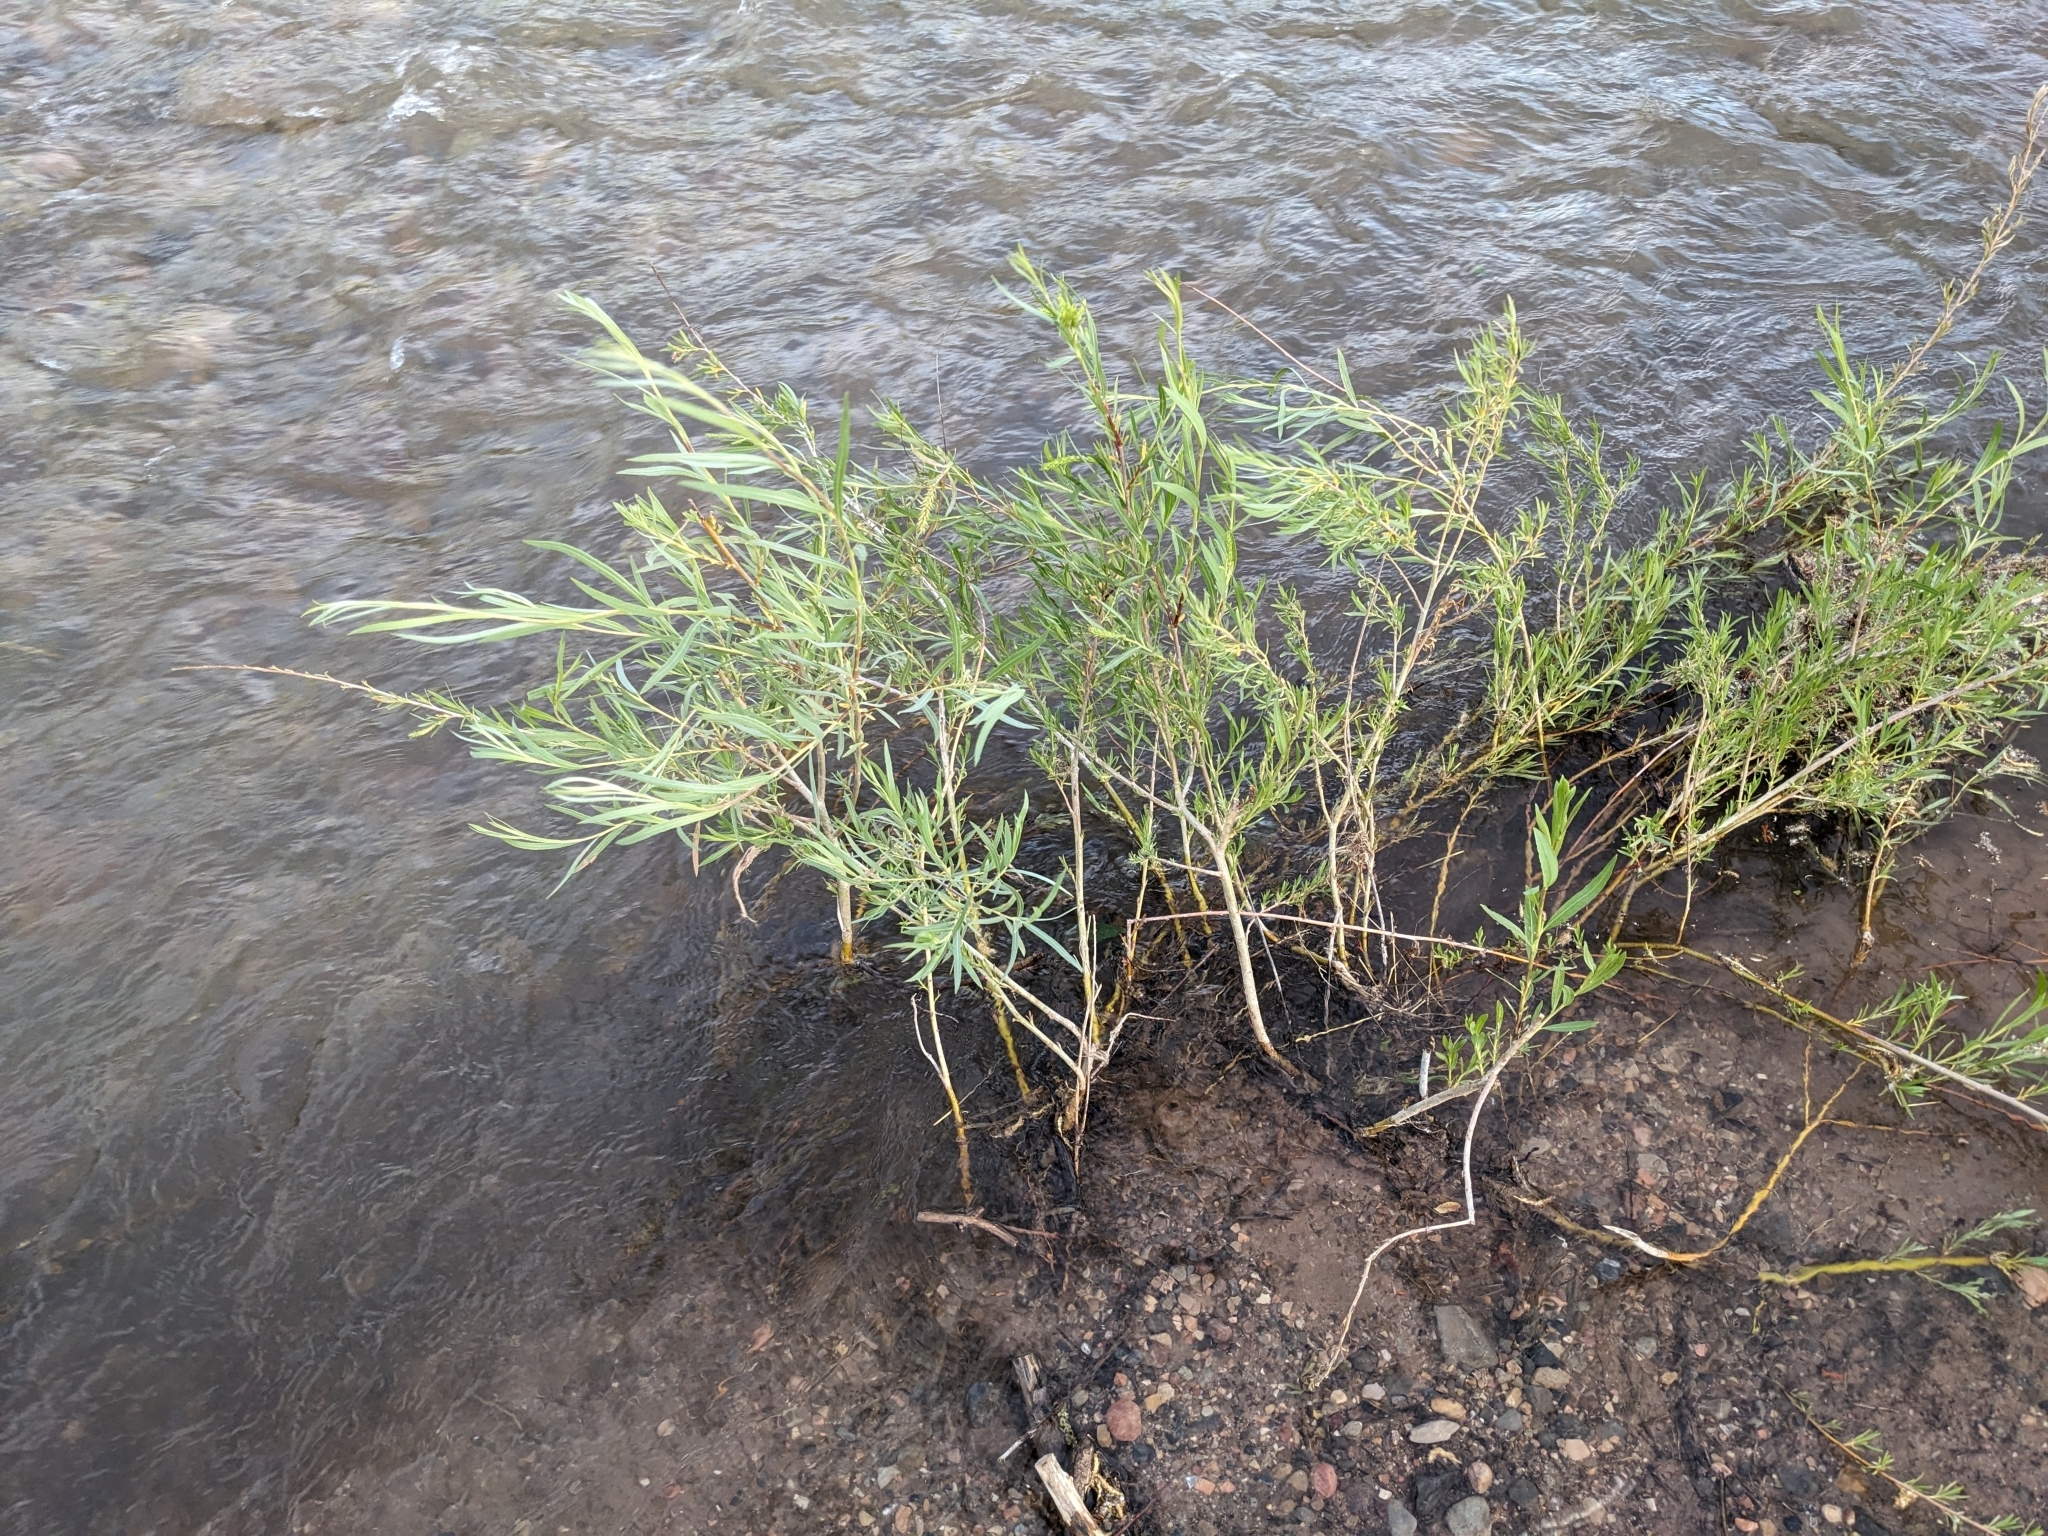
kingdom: Plantae
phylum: Tracheophyta
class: Magnoliopsida
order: Malpighiales
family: Salicaceae
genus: Salix
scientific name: Salix exigua
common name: Coyote willow
